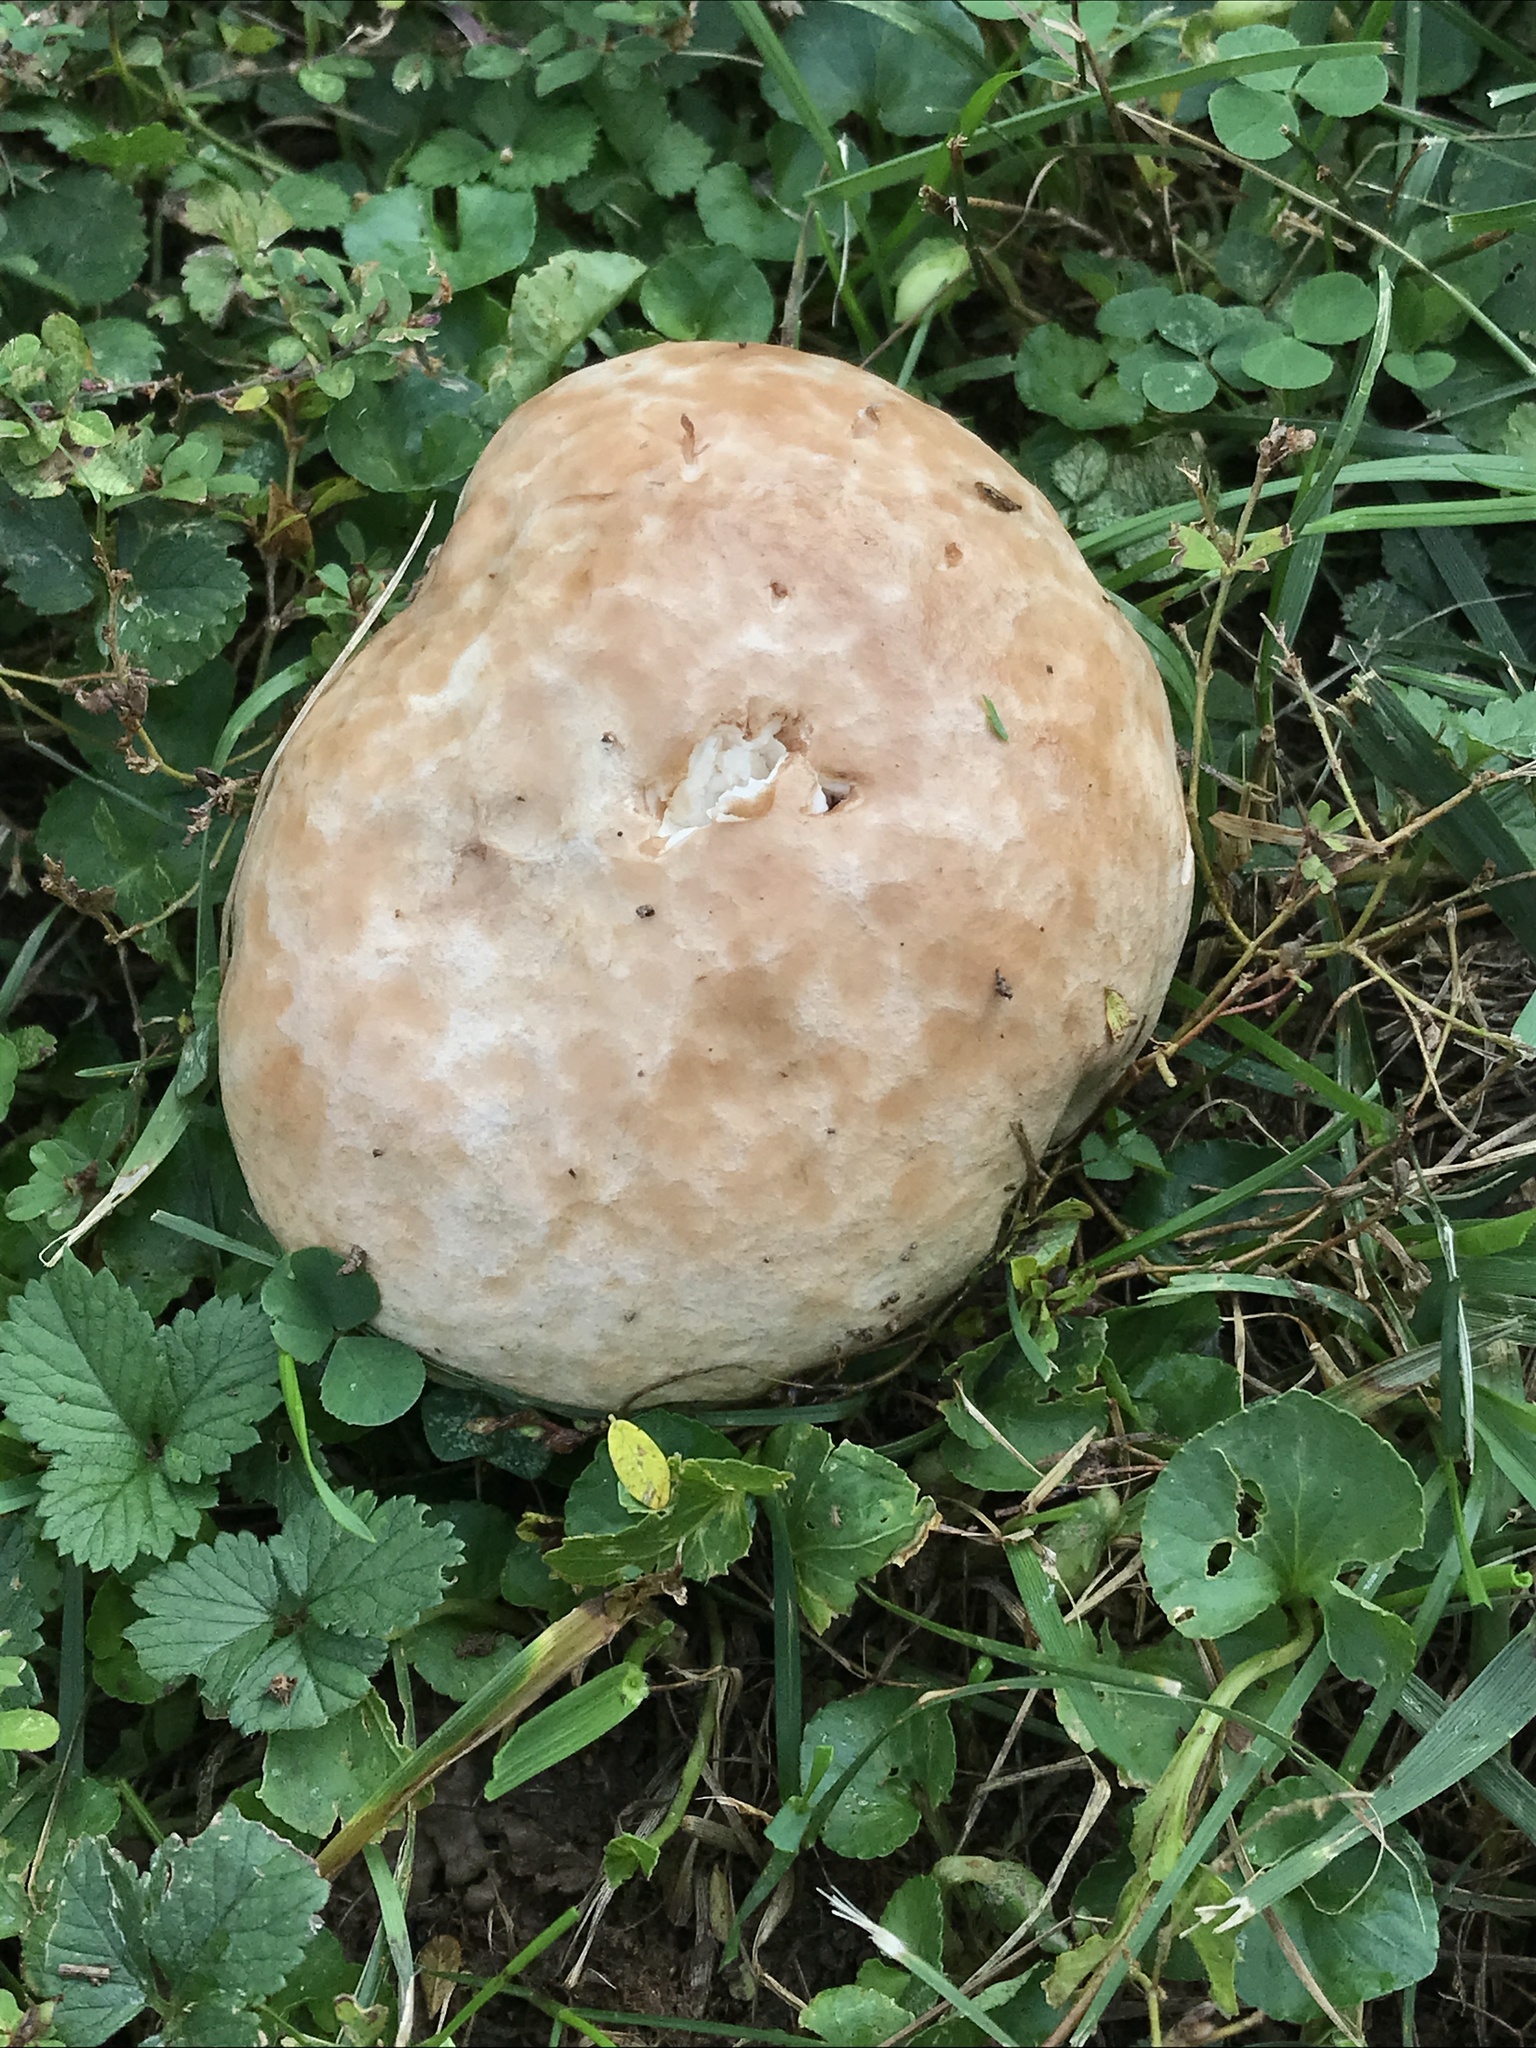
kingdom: Fungi
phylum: Basidiomycota
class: Agaricomycetes
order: Agaricales
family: Lycoperdaceae
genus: Calvatia
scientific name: Calvatia cyathiformis
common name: Purple-spored puffball
